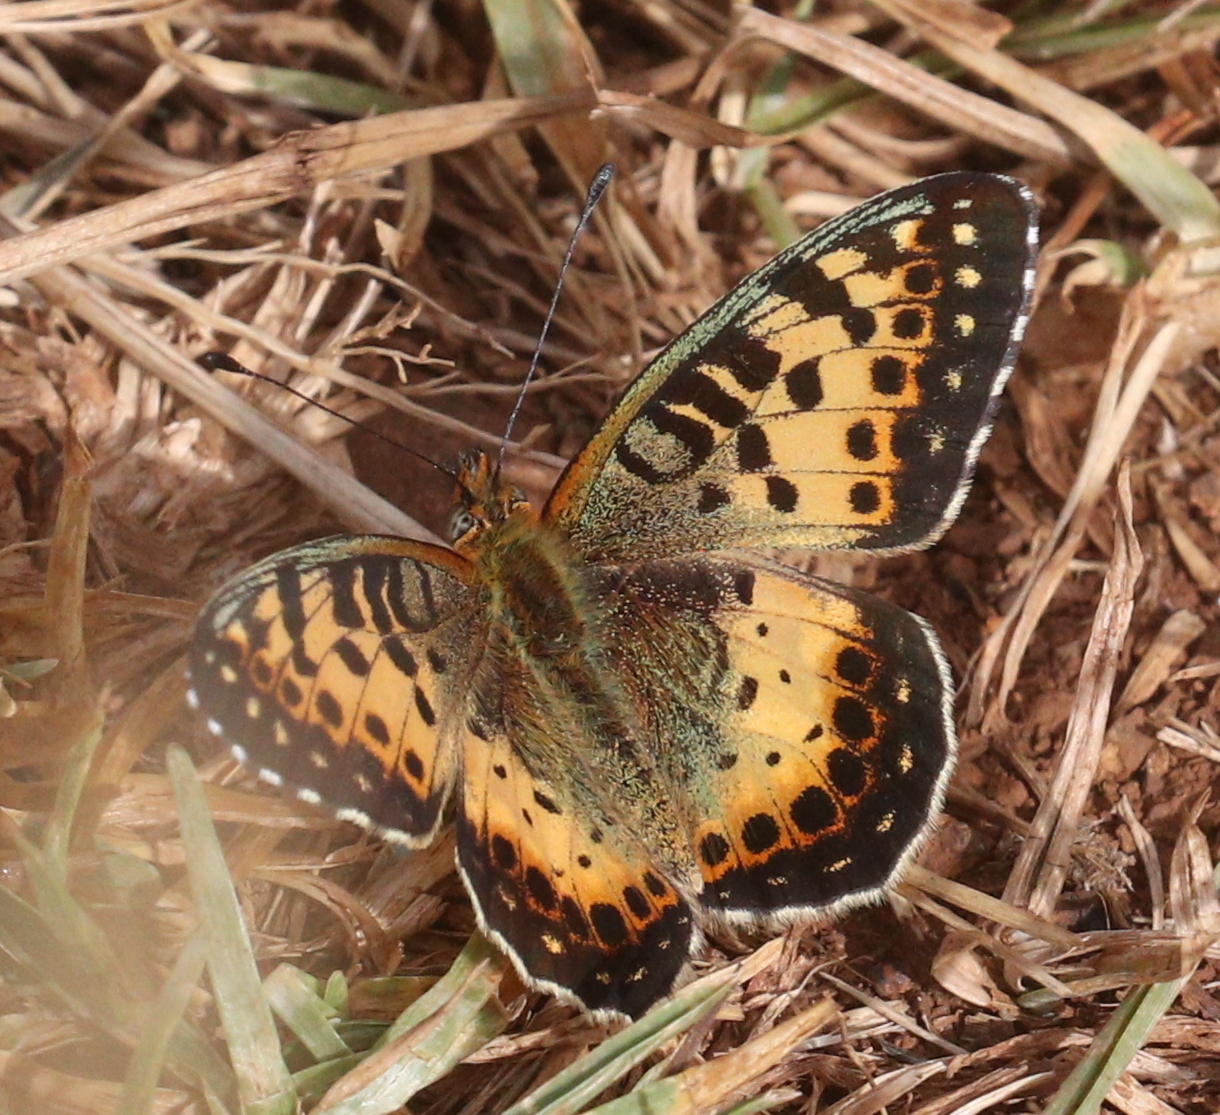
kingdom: Animalia
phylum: Arthropoda
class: Insecta
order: Lepidoptera
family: Nymphalidae
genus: Issoria
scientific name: Issoria hanningtoni
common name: Hannington's fritillary
